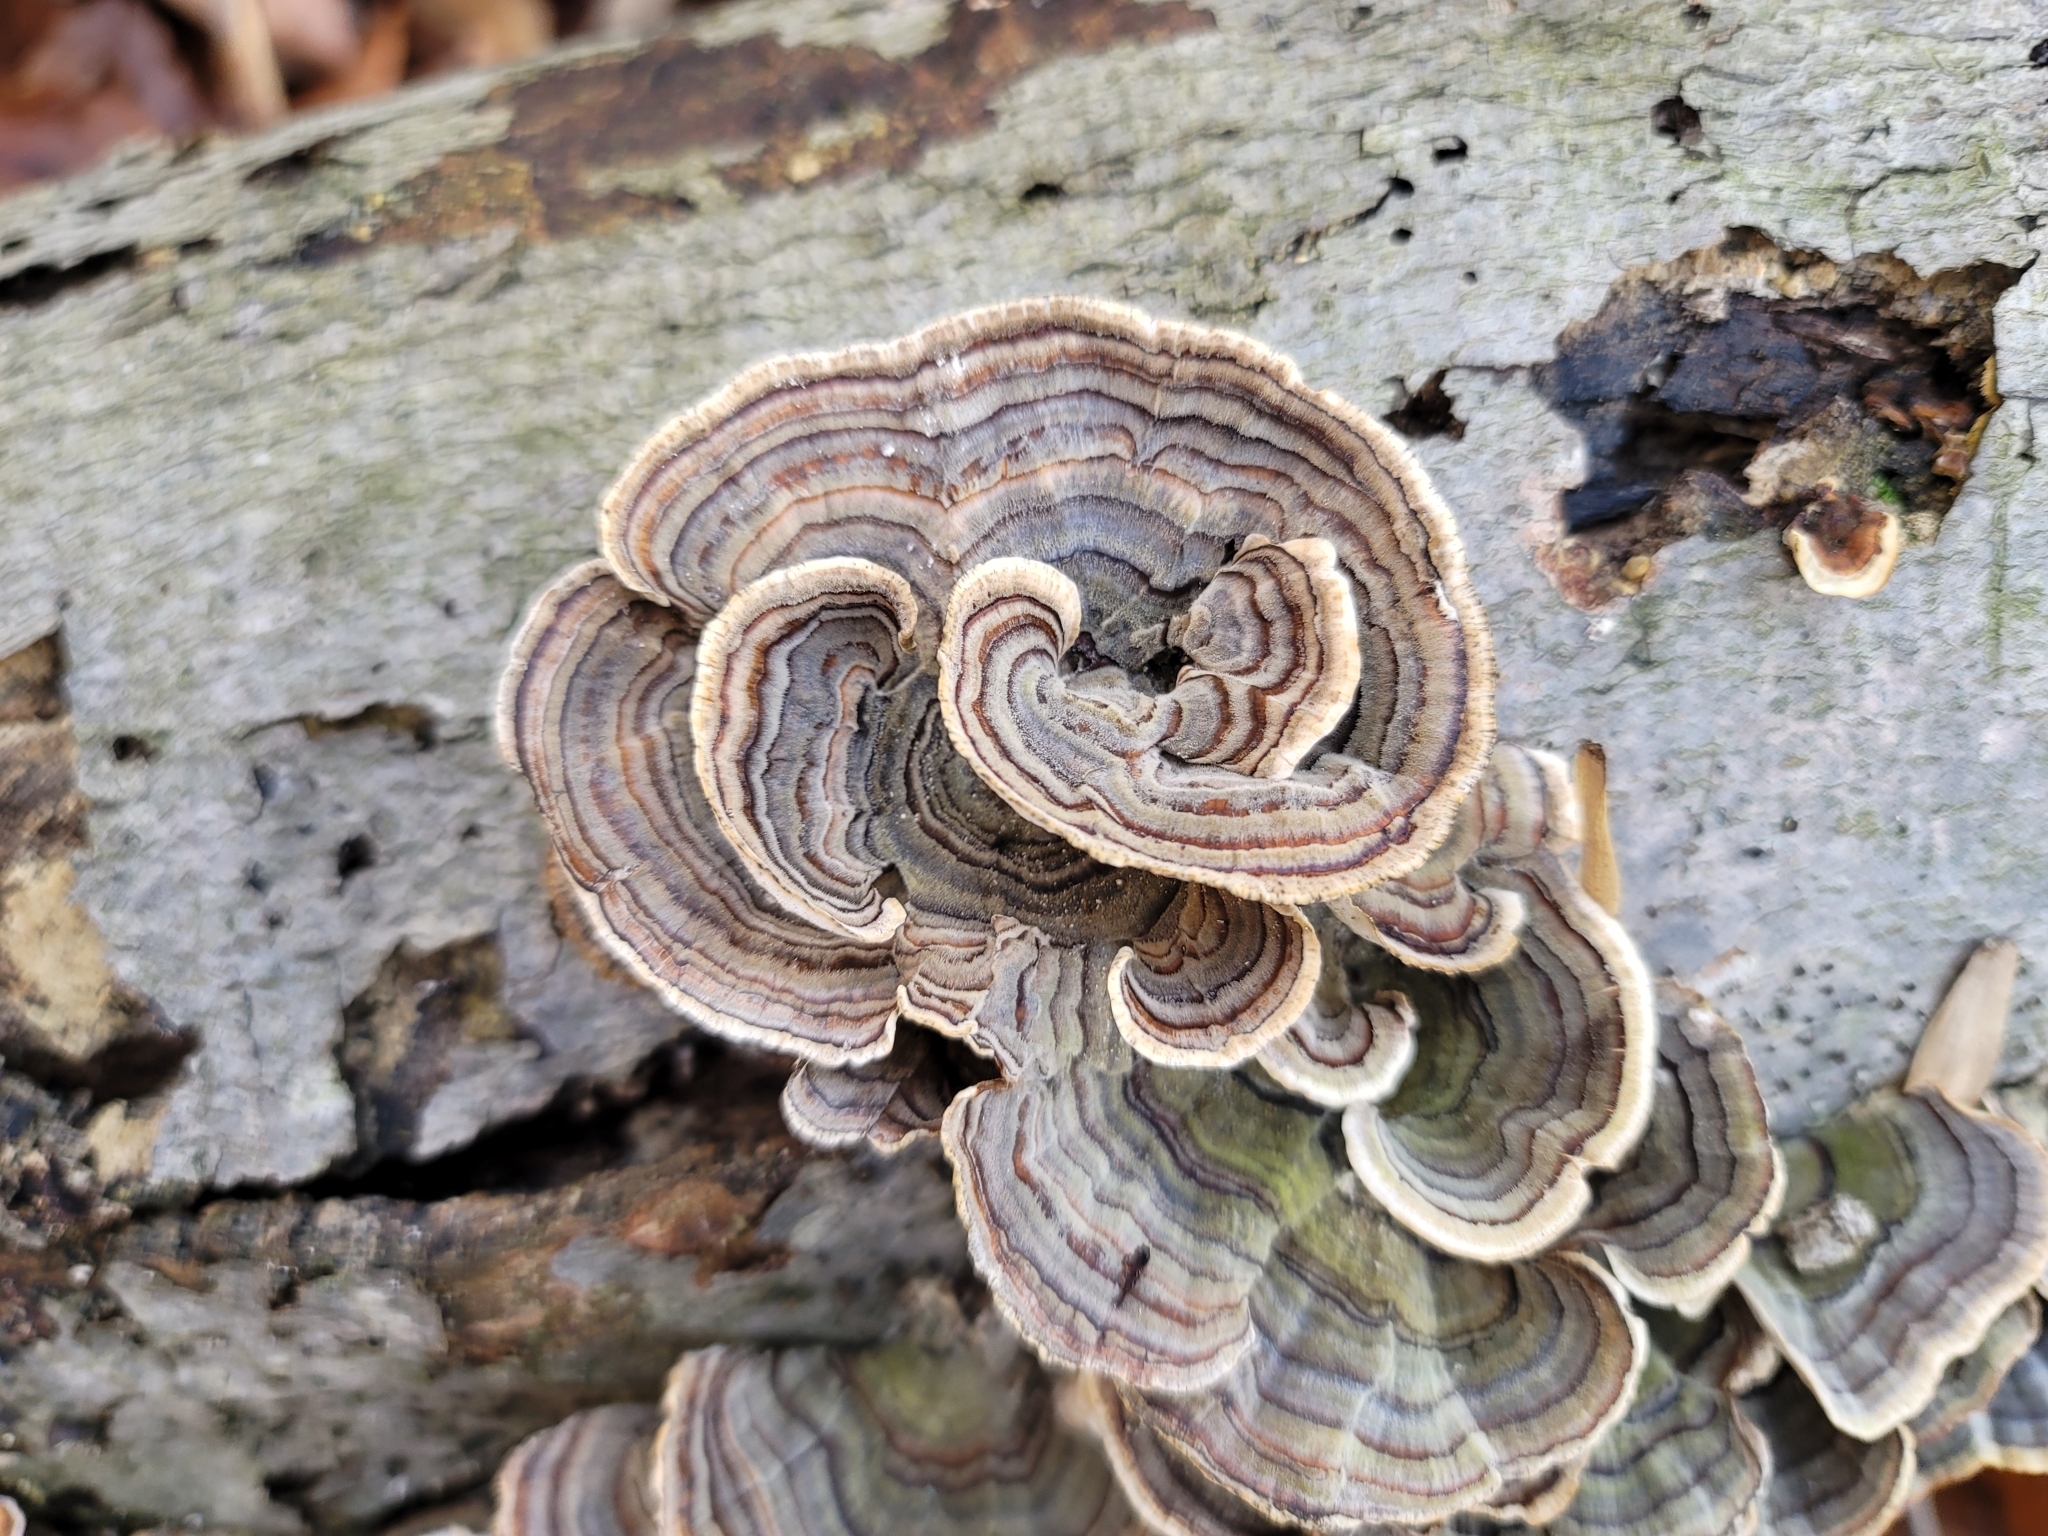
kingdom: Fungi
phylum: Basidiomycota
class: Agaricomycetes
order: Polyporales
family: Polyporaceae
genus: Trametes
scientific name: Trametes versicolor
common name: Turkeytail
